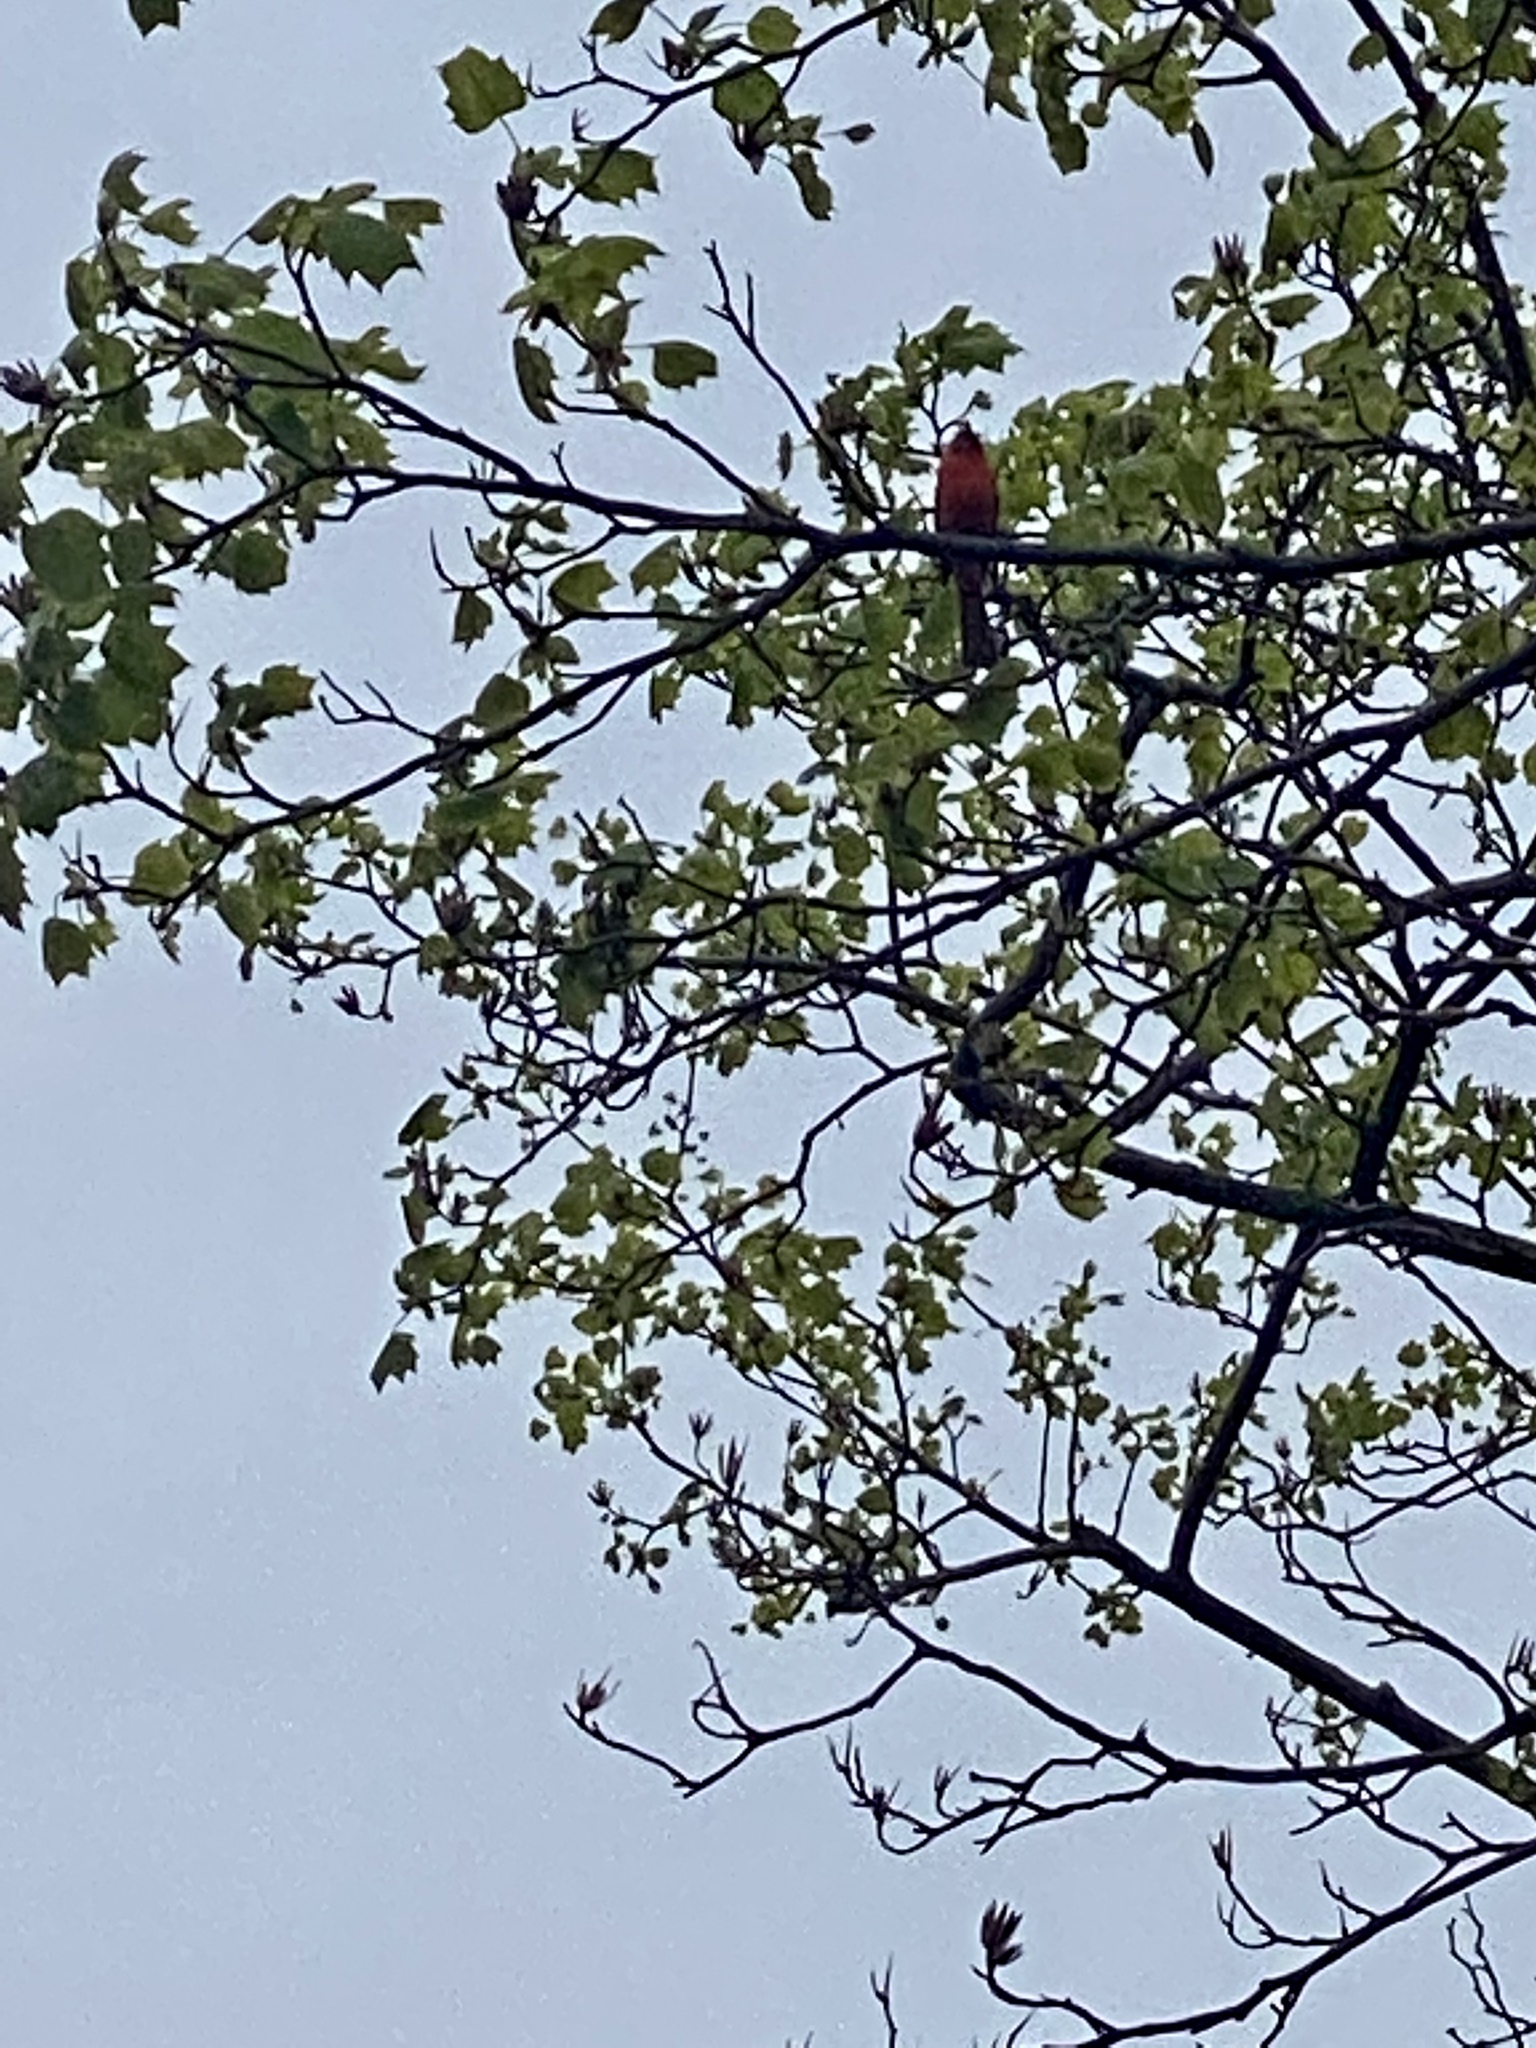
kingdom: Animalia
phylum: Chordata
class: Aves
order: Passeriformes
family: Cardinalidae
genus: Cardinalis
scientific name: Cardinalis cardinalis
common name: Northern cardinal
